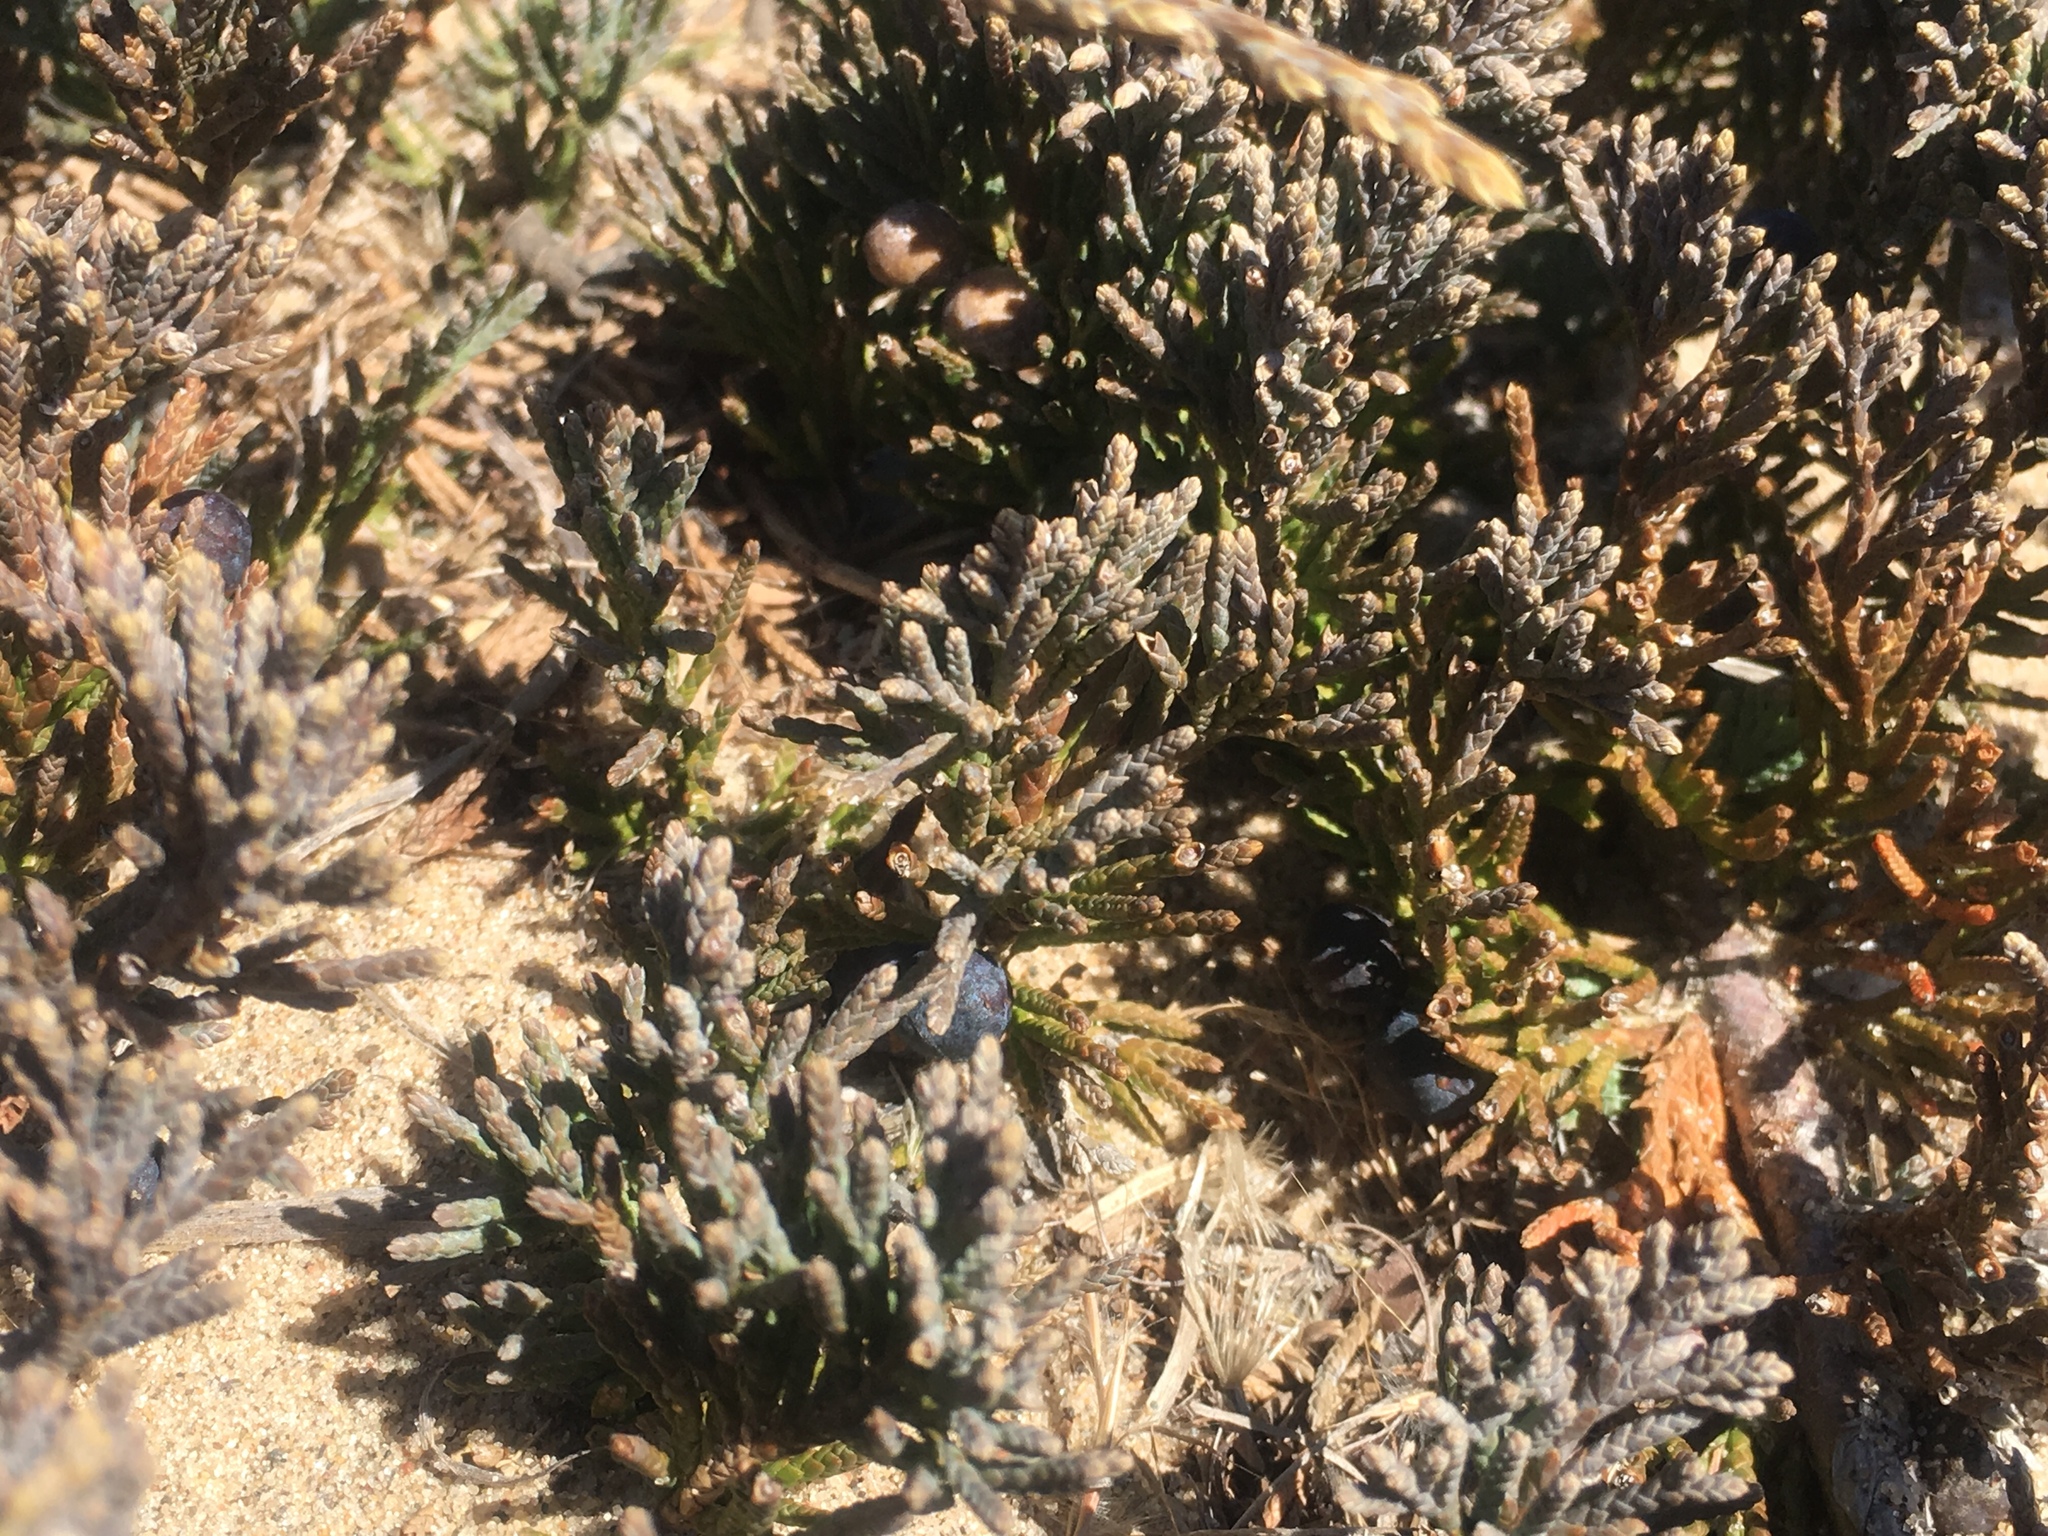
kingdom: Plantae
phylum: Tracheophyta
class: Pinopsida
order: Pinales
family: Cupressaceae
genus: Juniperus
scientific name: Juniperus horizontalis
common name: Creeping juniper
